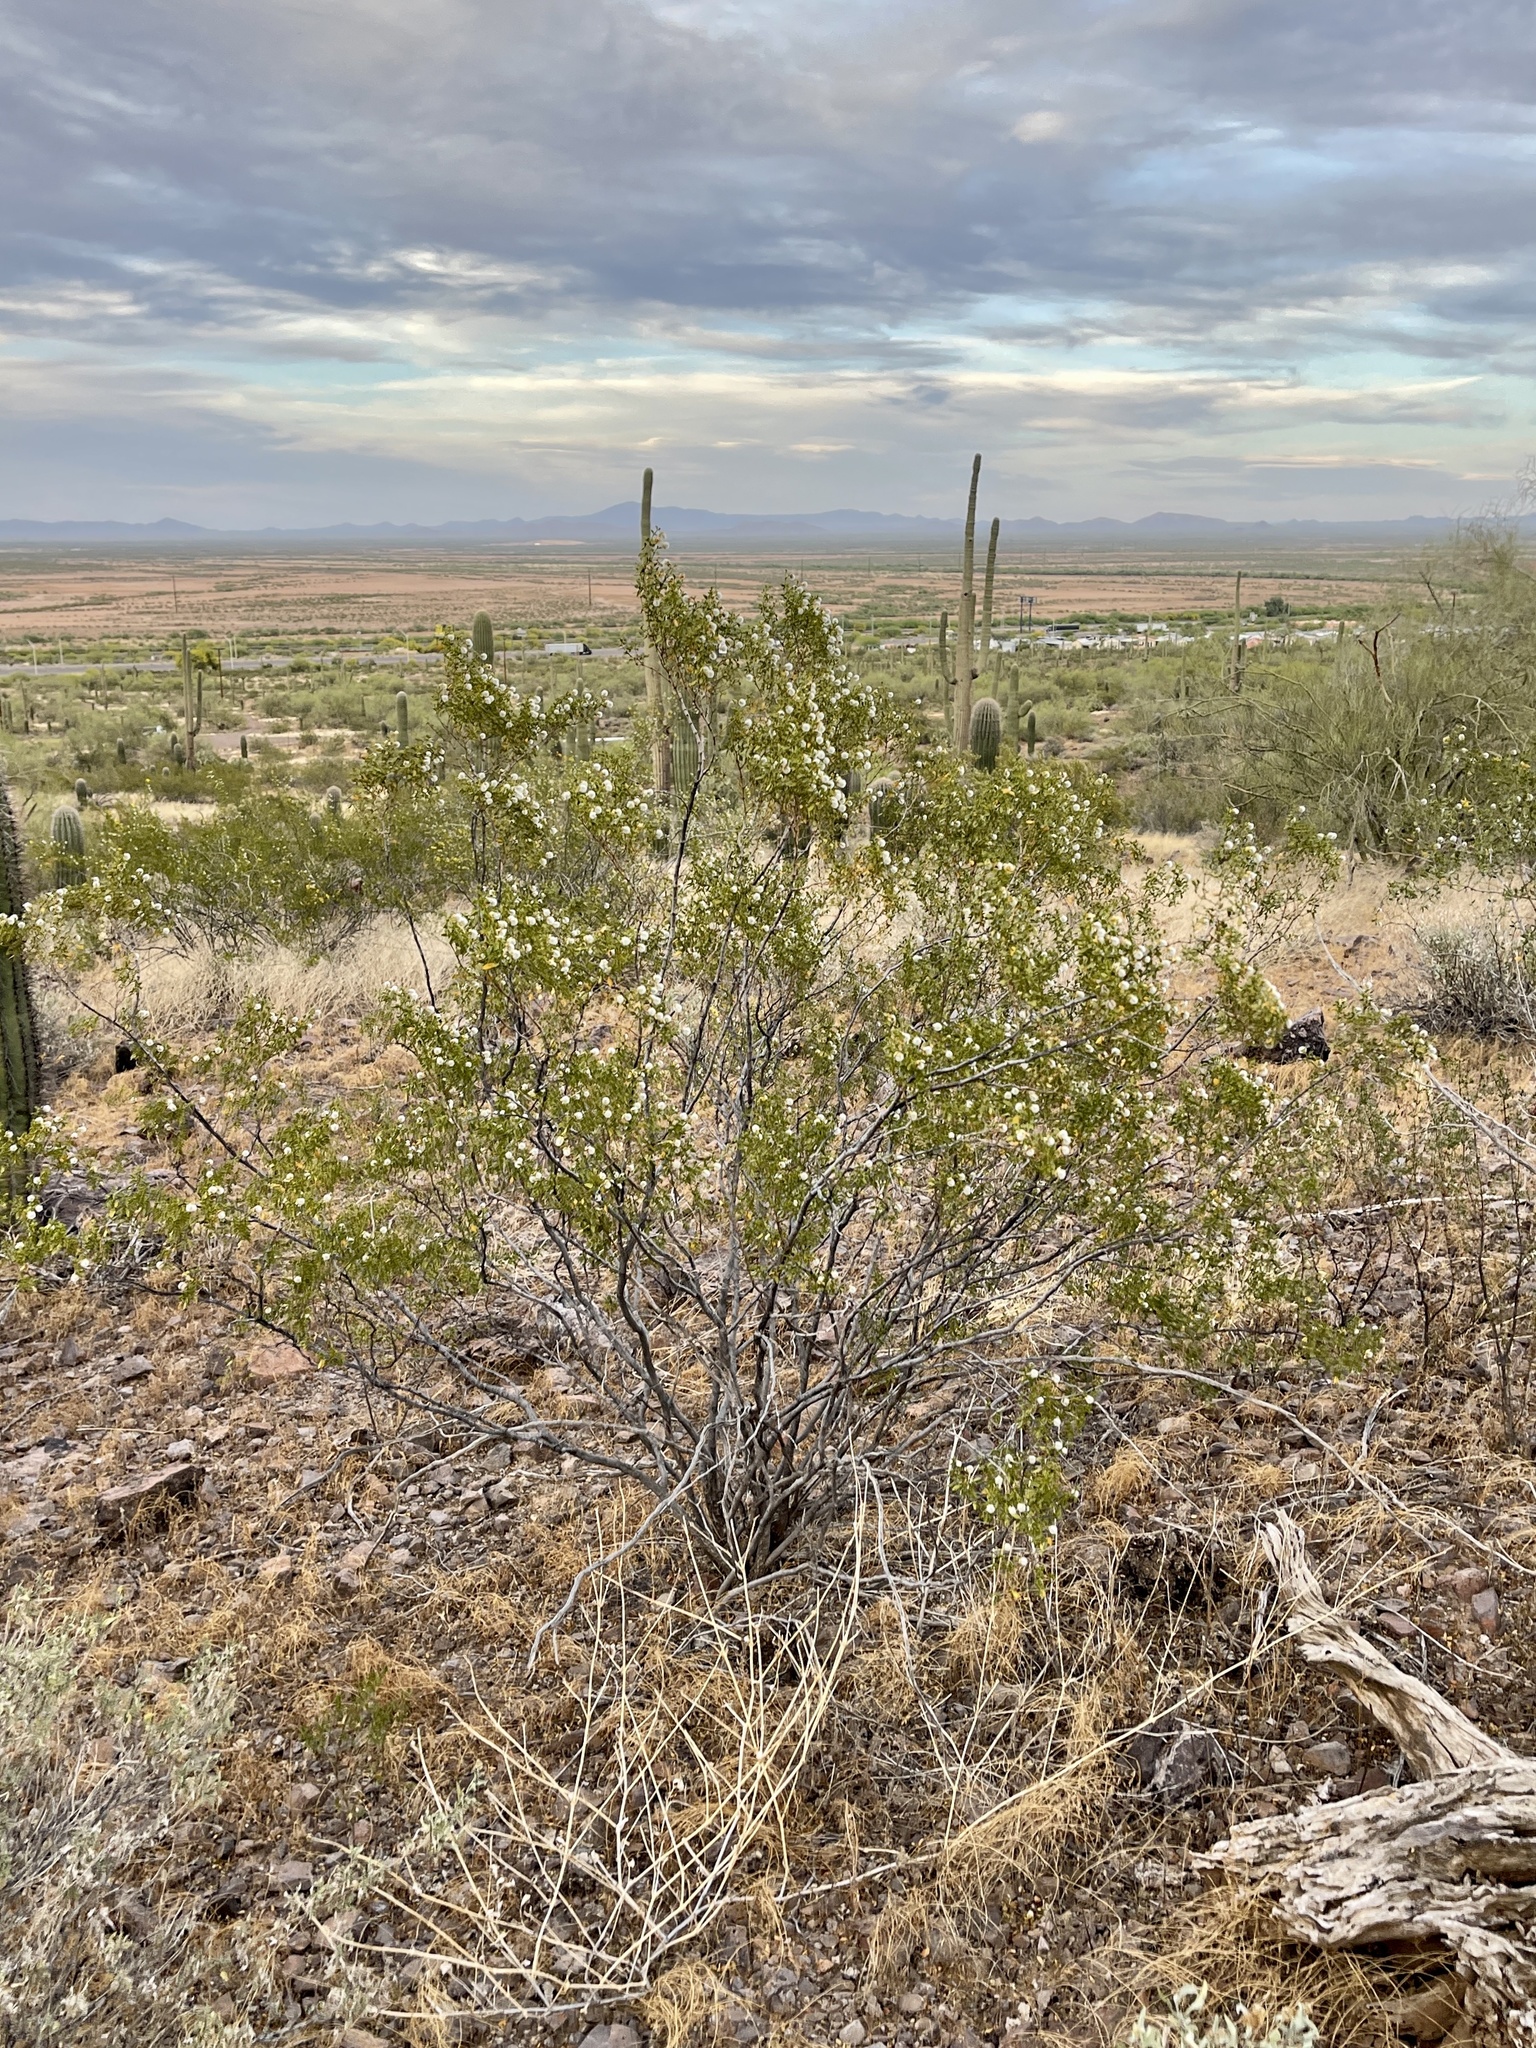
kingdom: Plantae
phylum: Tracheophyta
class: Magnoliopsida
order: Zygophyllales
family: Zygophyllaceae
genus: Larrea
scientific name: Larrea tridentata
